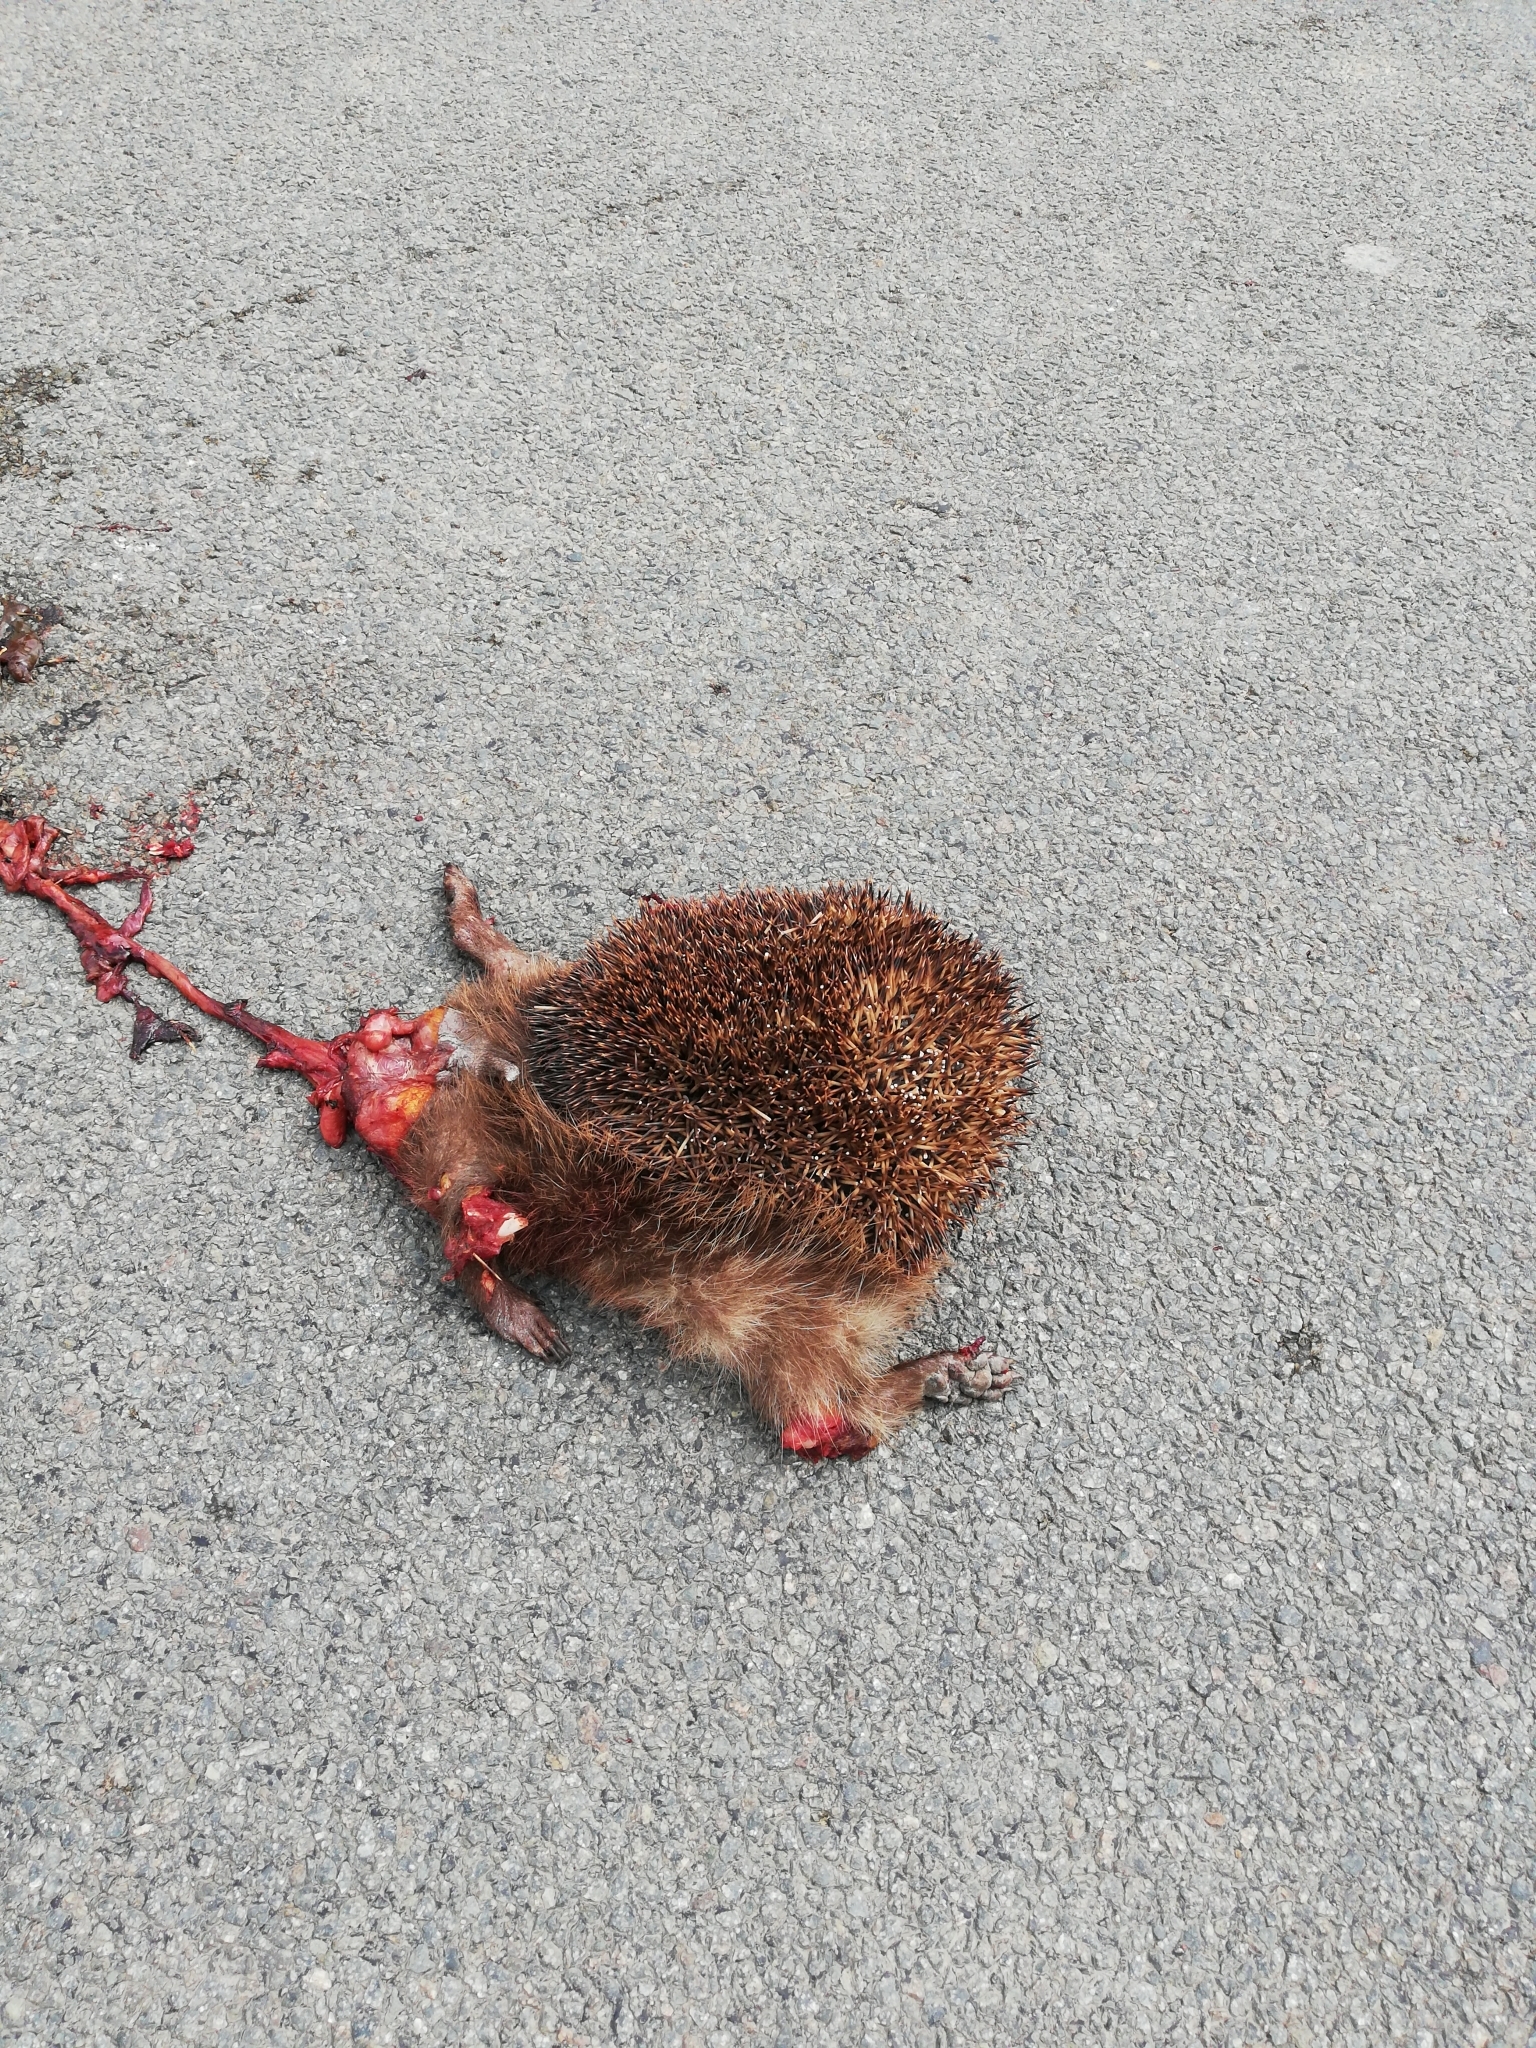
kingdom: Animalia
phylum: Chordata
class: Mammalia
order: Erinaceomorpha
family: Erinaceidae
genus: Erinaceus
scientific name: Erinaceus europaeus
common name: West european hedgehog
